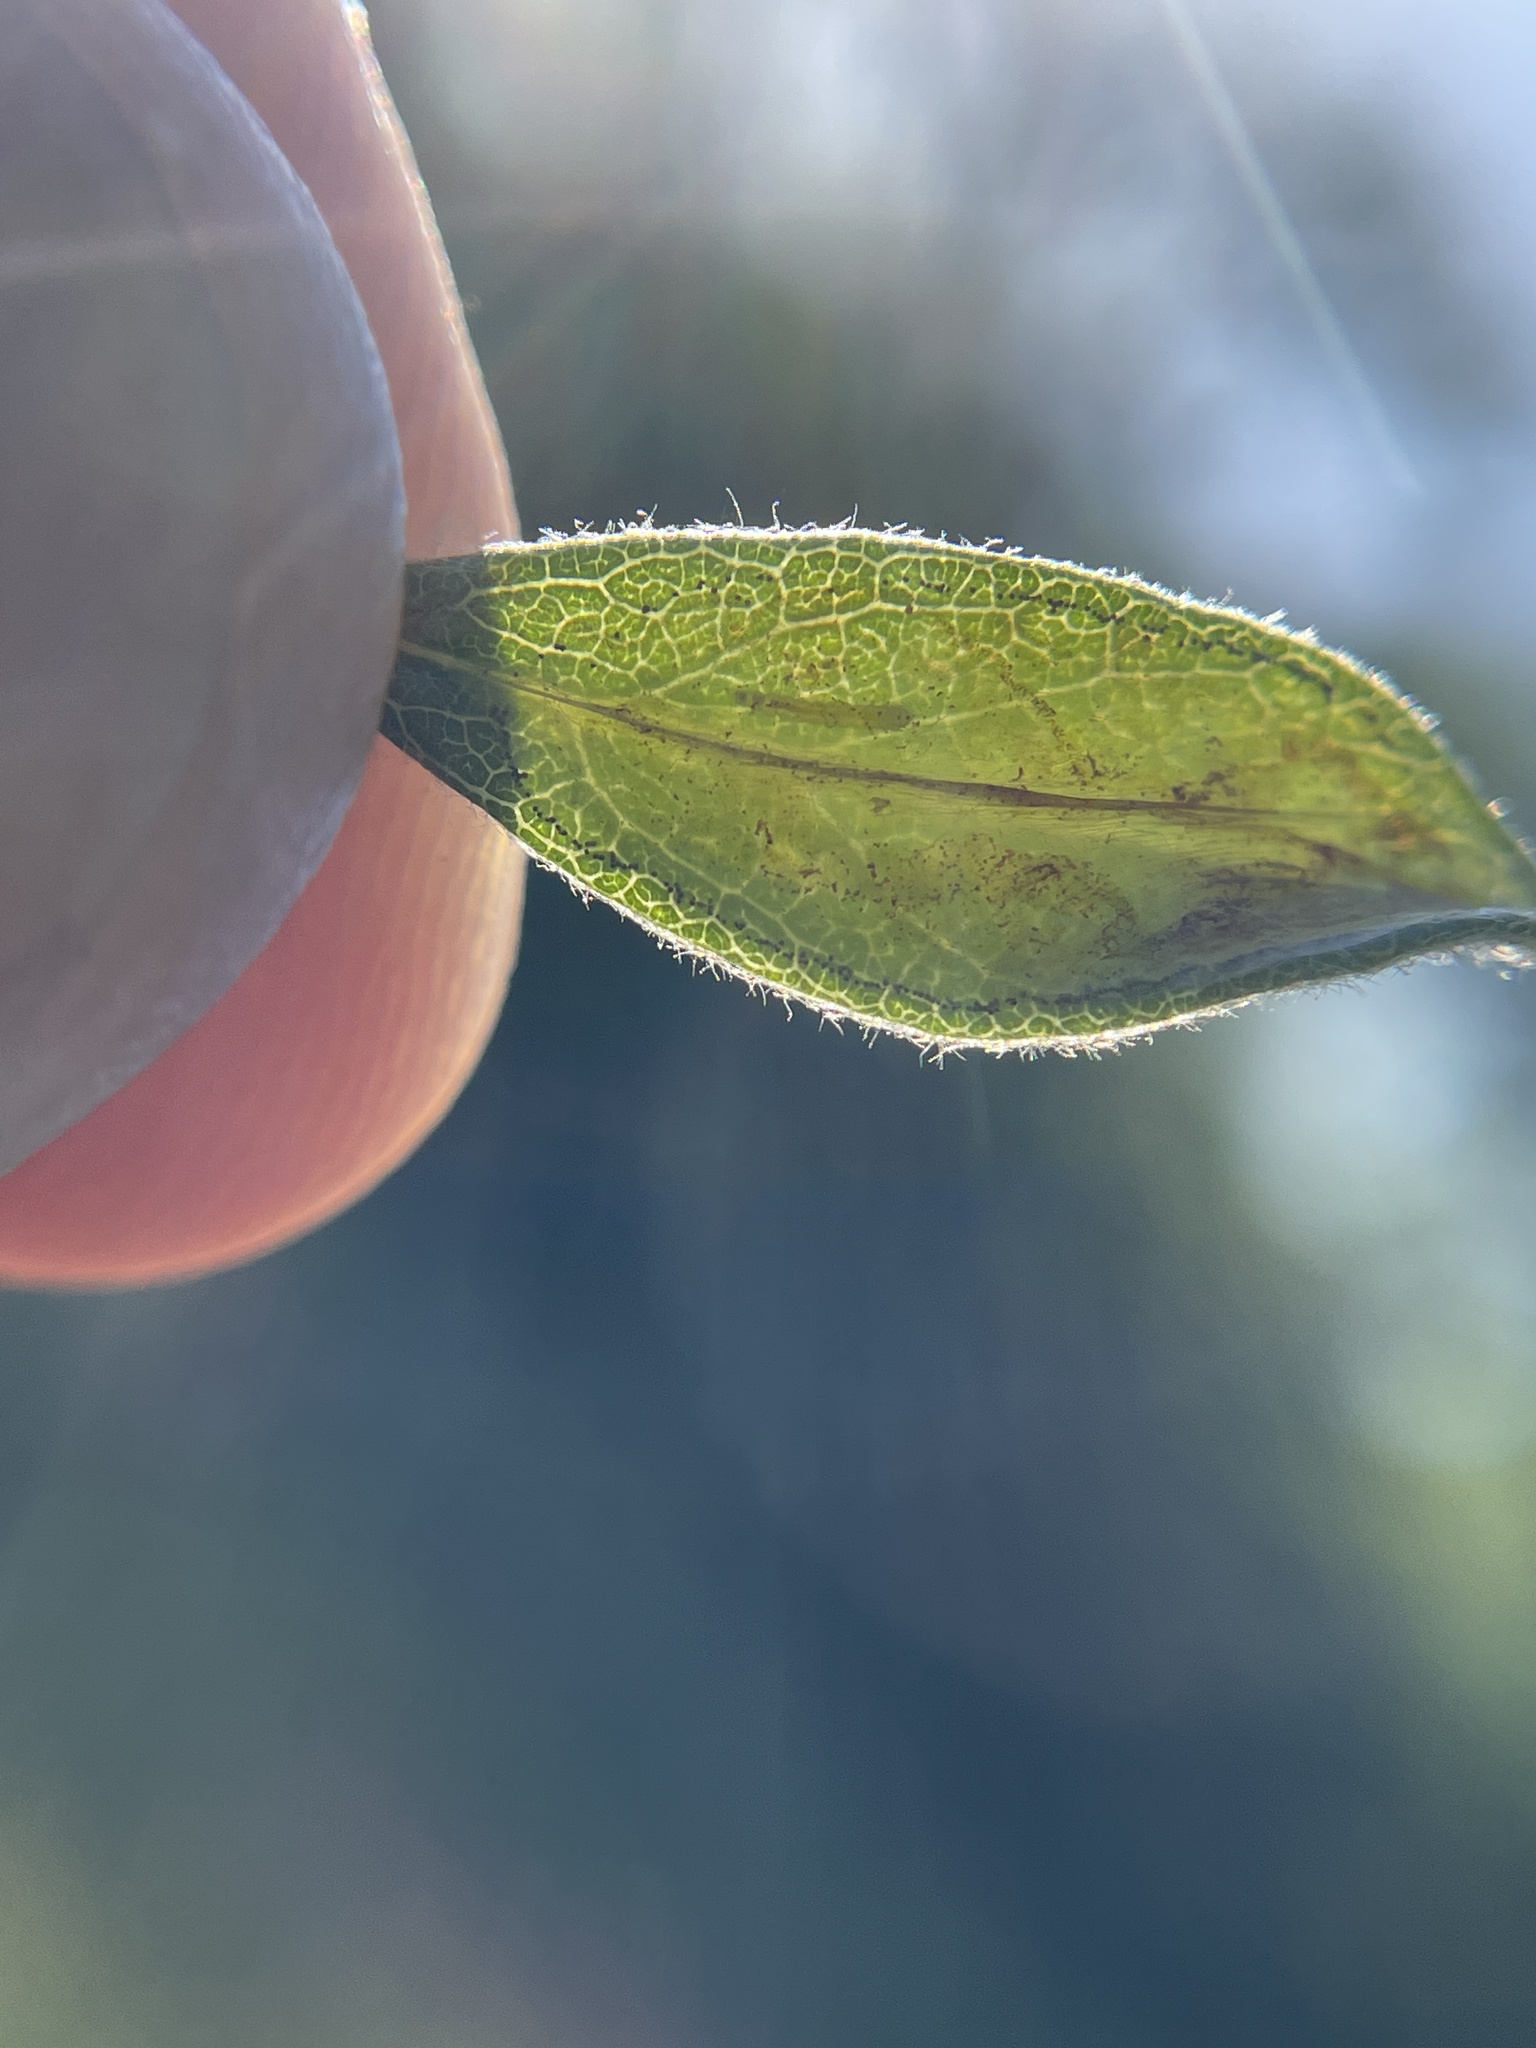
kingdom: Animalia
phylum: Arthropoda
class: Insecta
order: Lepidoptera
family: Gracillariidae
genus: Parectopa
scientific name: Parectopa bumeliella
